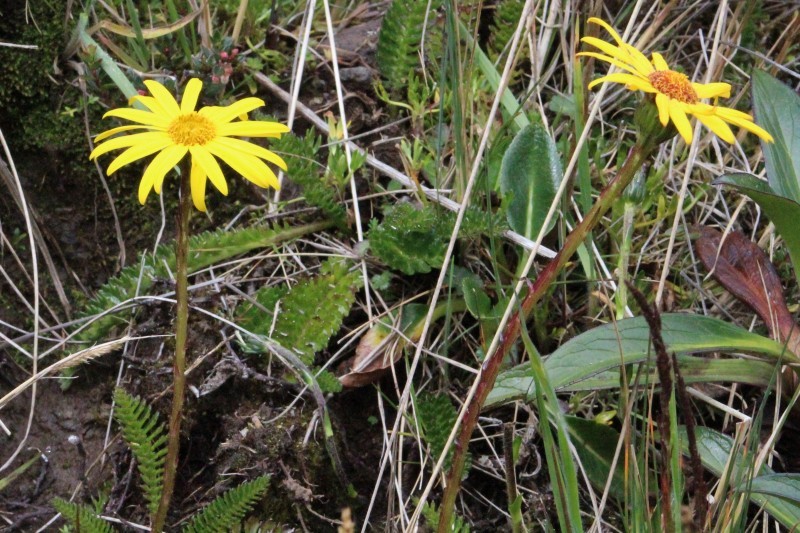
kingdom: Plantae
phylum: Tracheophyta
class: Magnoliopsida
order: Asterales
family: Asteraceae
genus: Dorobaea
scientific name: Dorobaea pimpinellifolia
